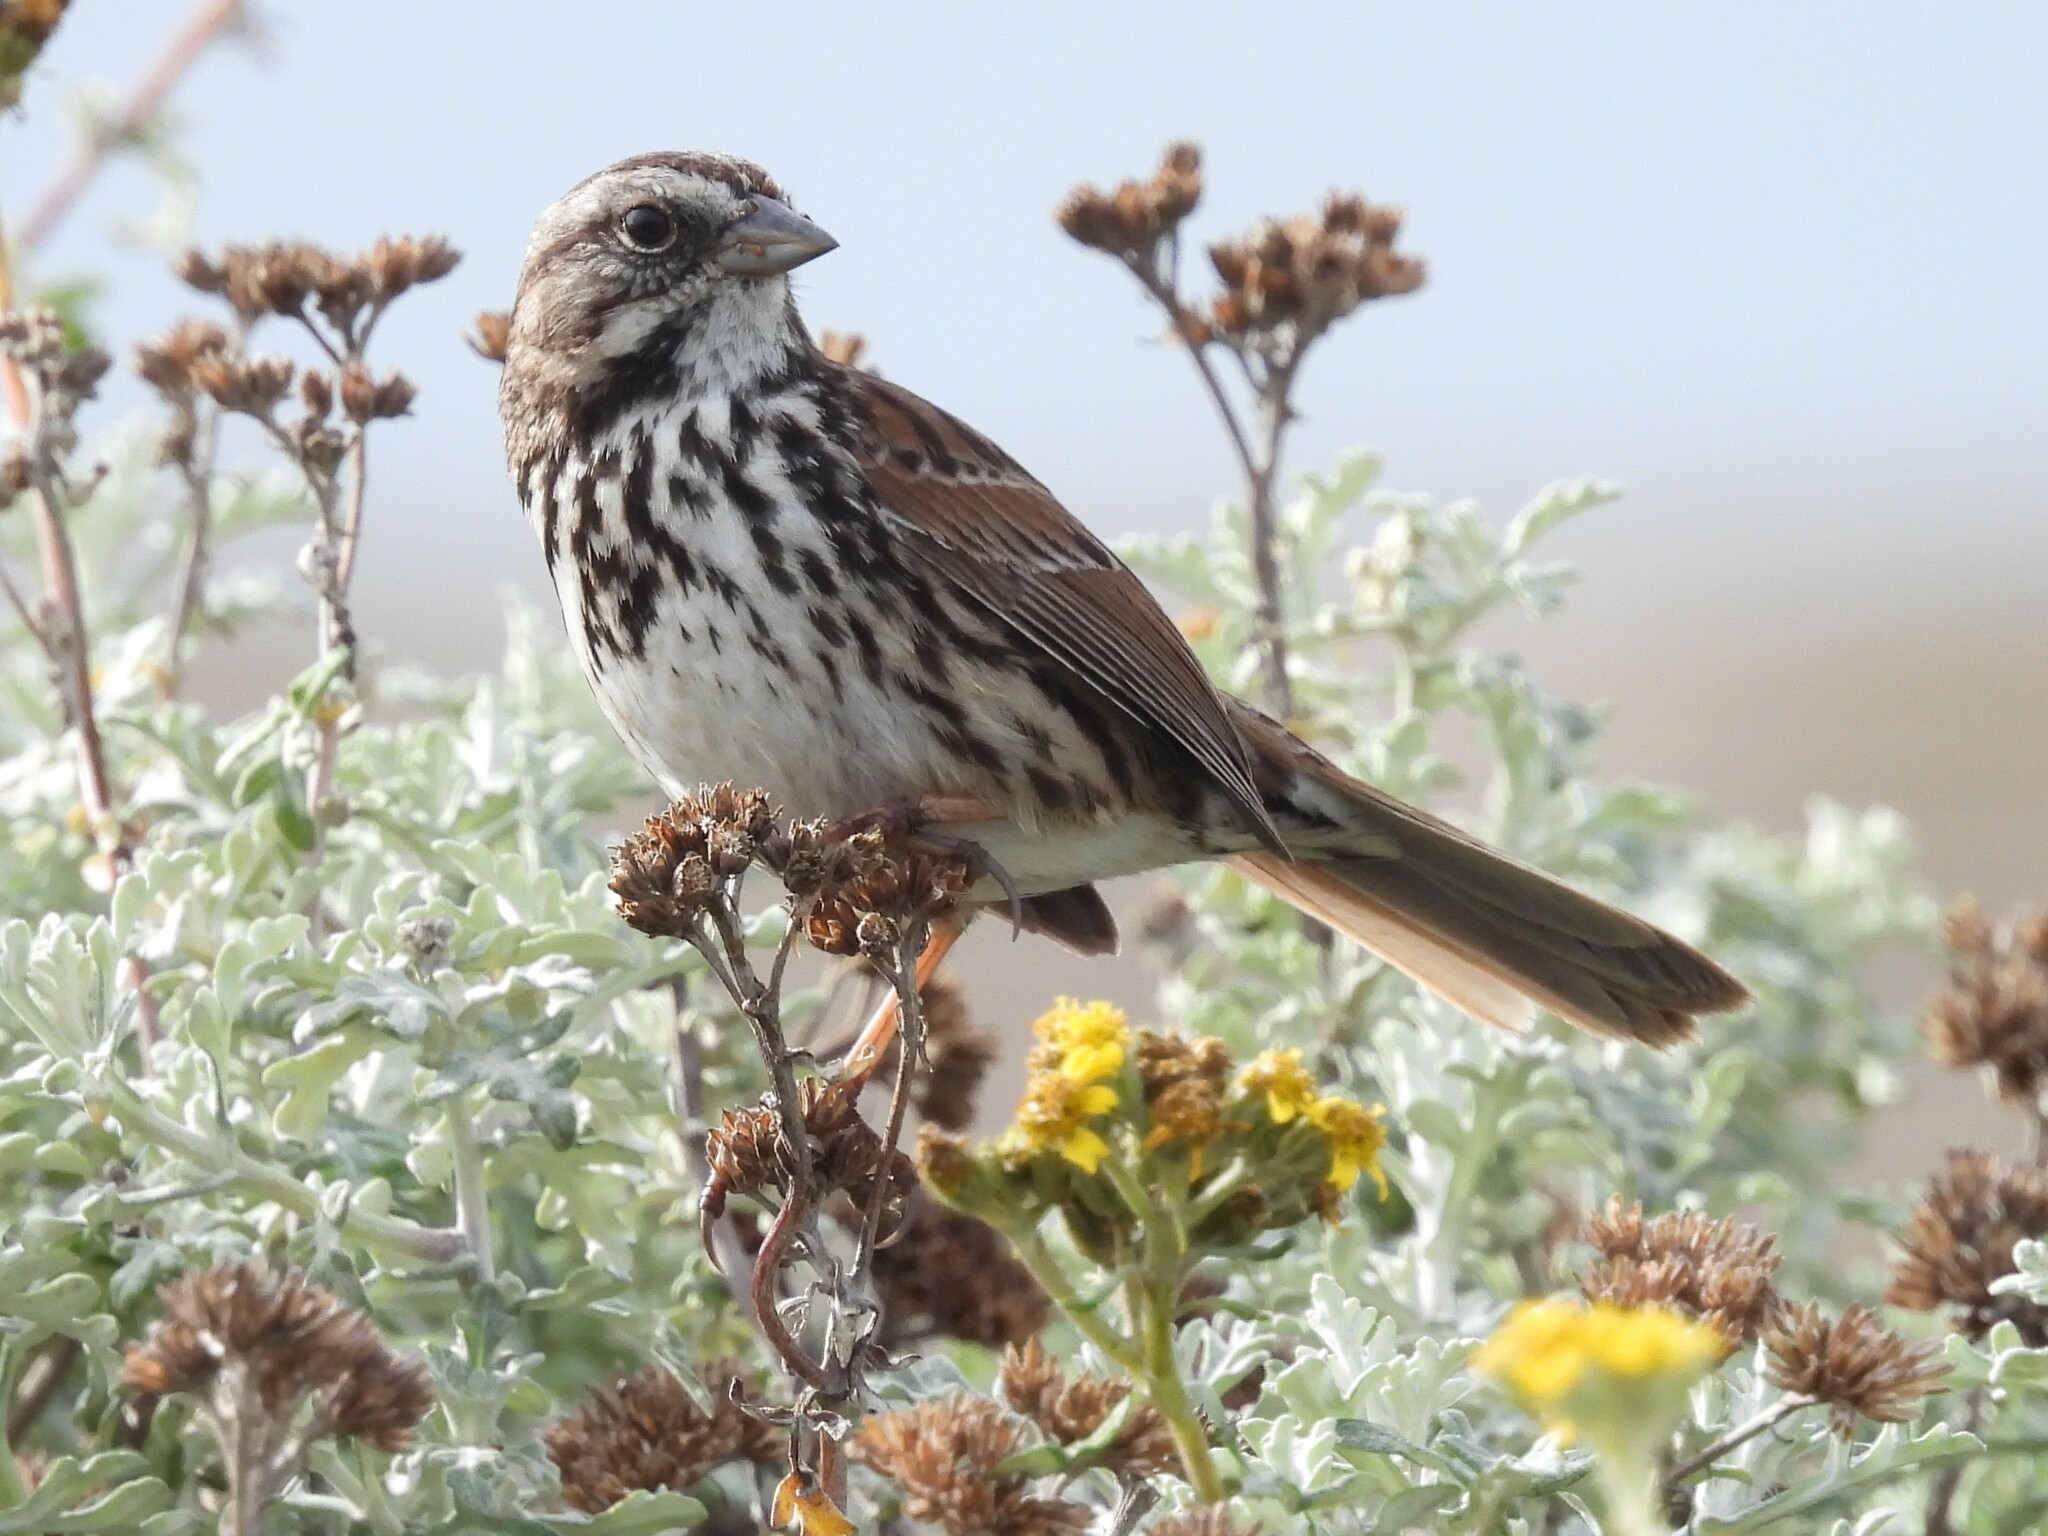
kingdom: Animalia
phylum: Chordata
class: Aves
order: Passeriformes
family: Passerellidae
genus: Melospiza
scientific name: Melospiza melodia
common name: Song sparrow
